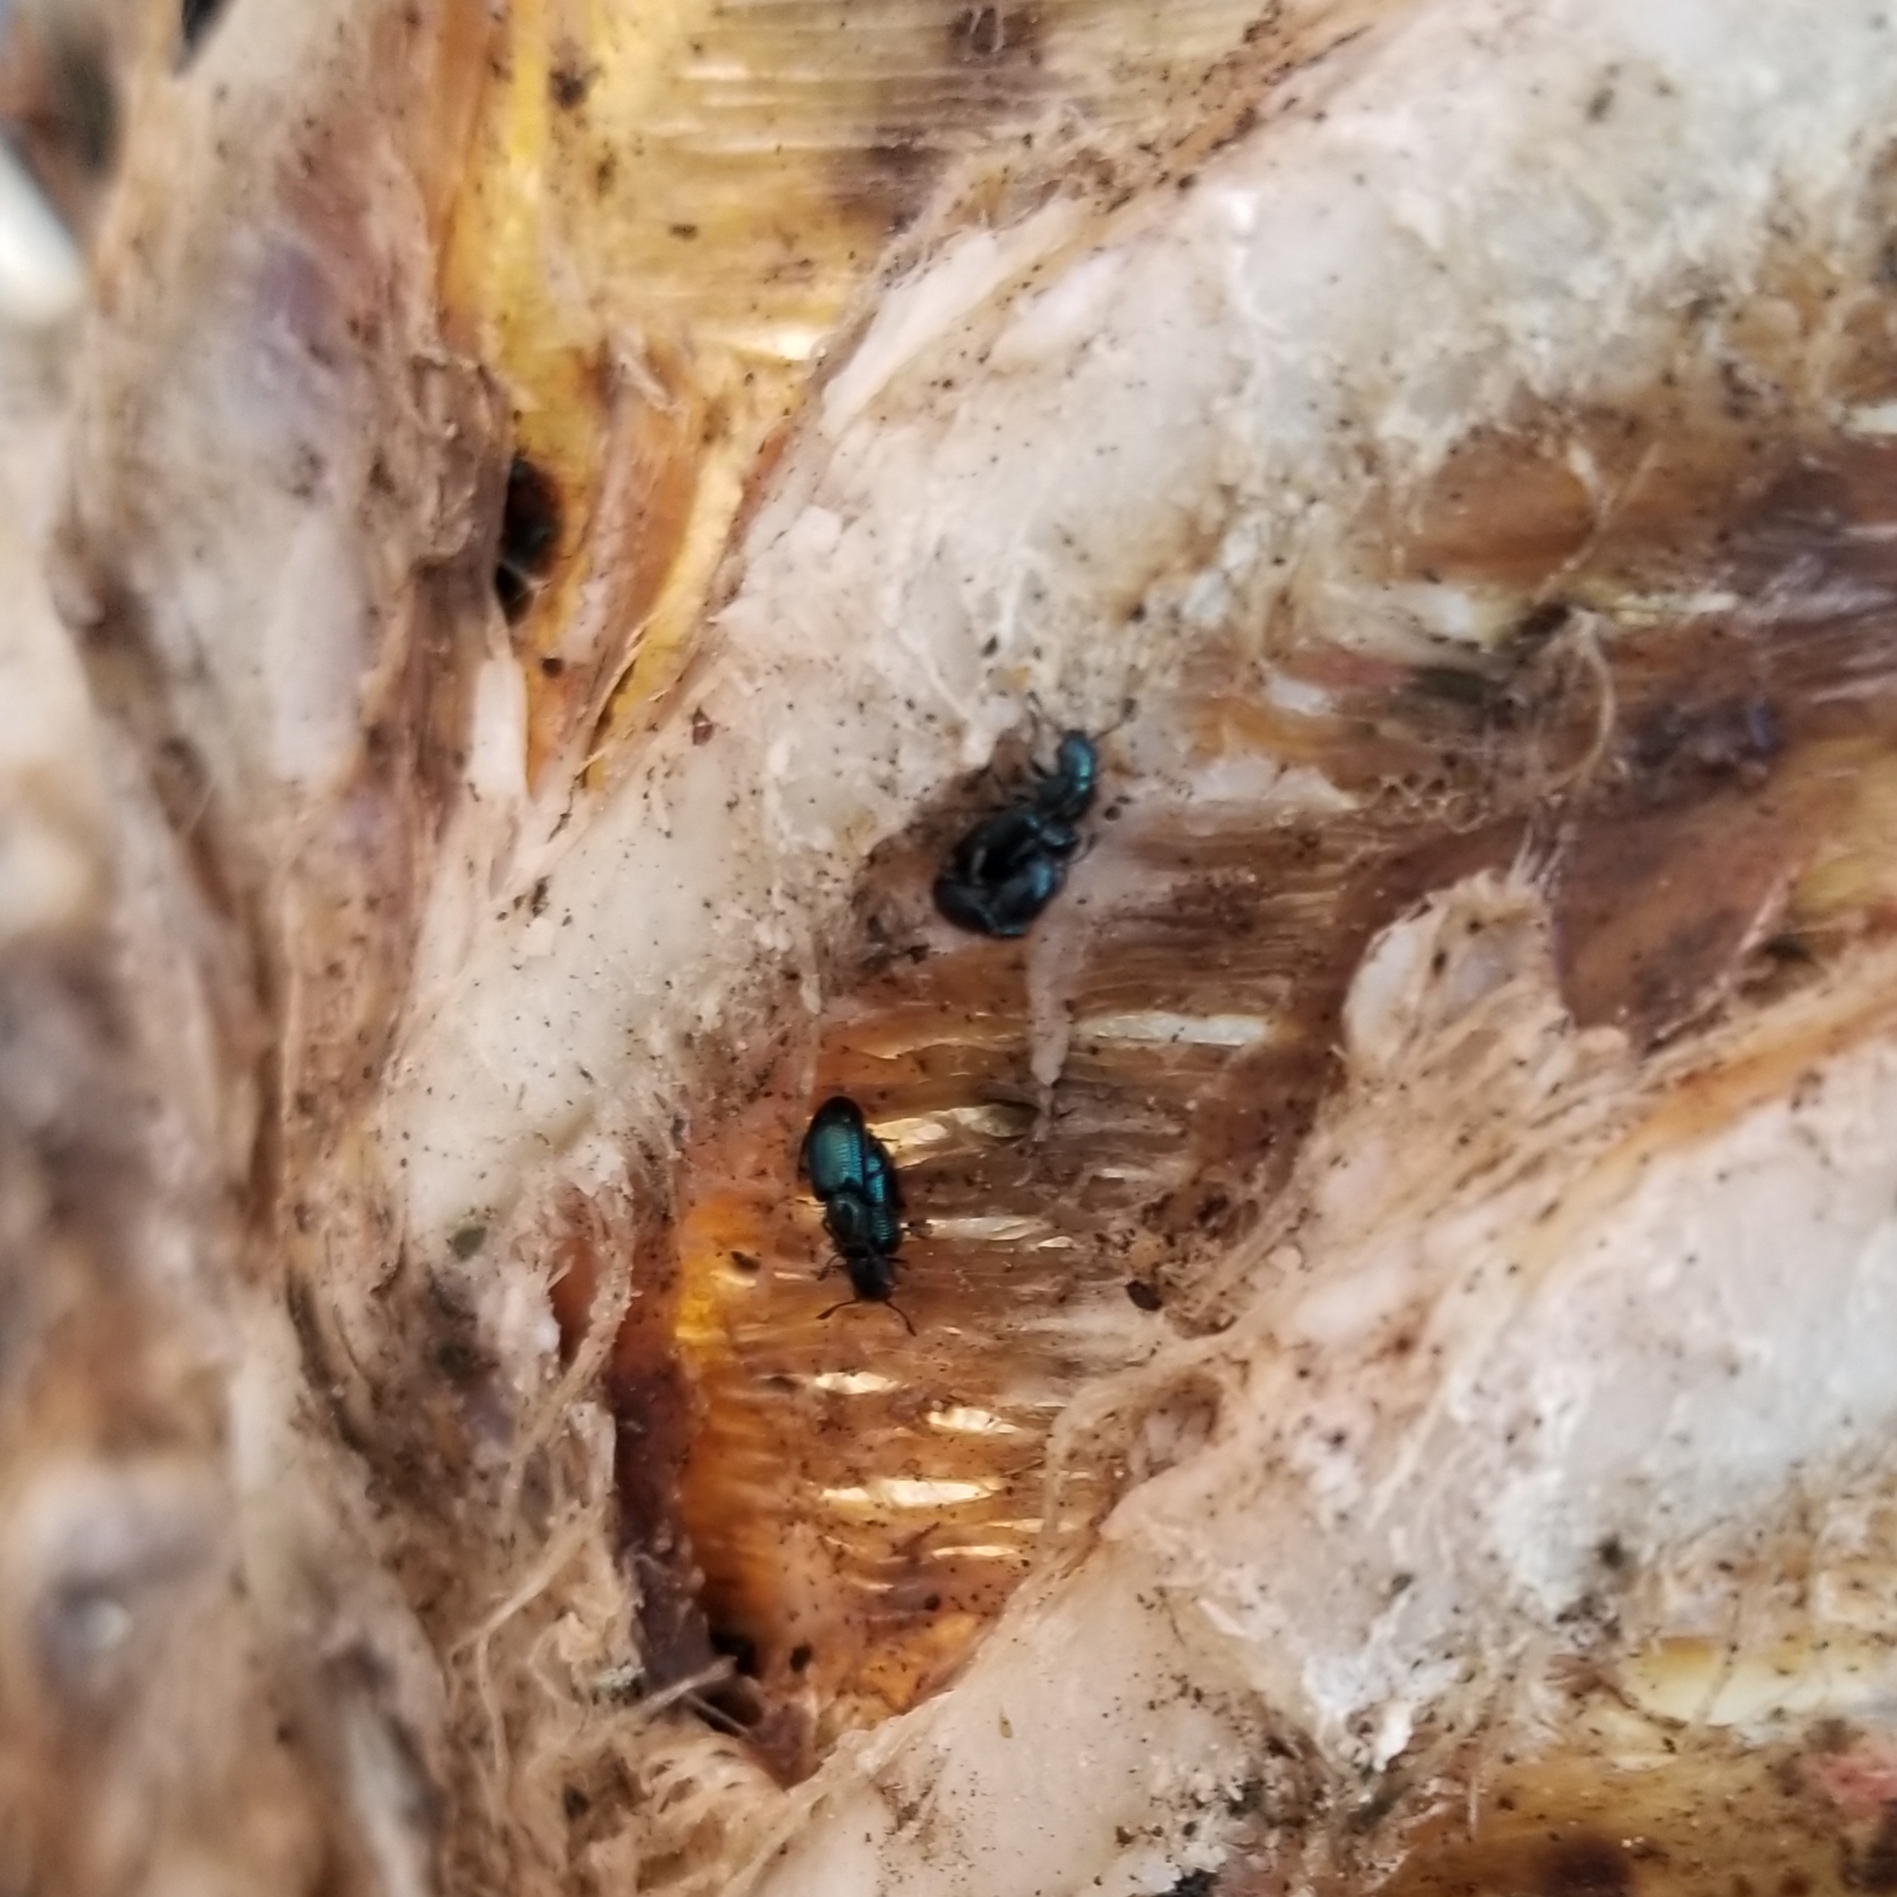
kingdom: Animalia
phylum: Arthropoda
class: Insecta
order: Coleoptera
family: Cleridae
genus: Necrobia
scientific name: Necrobia violacea
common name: Violet checkered beetle
